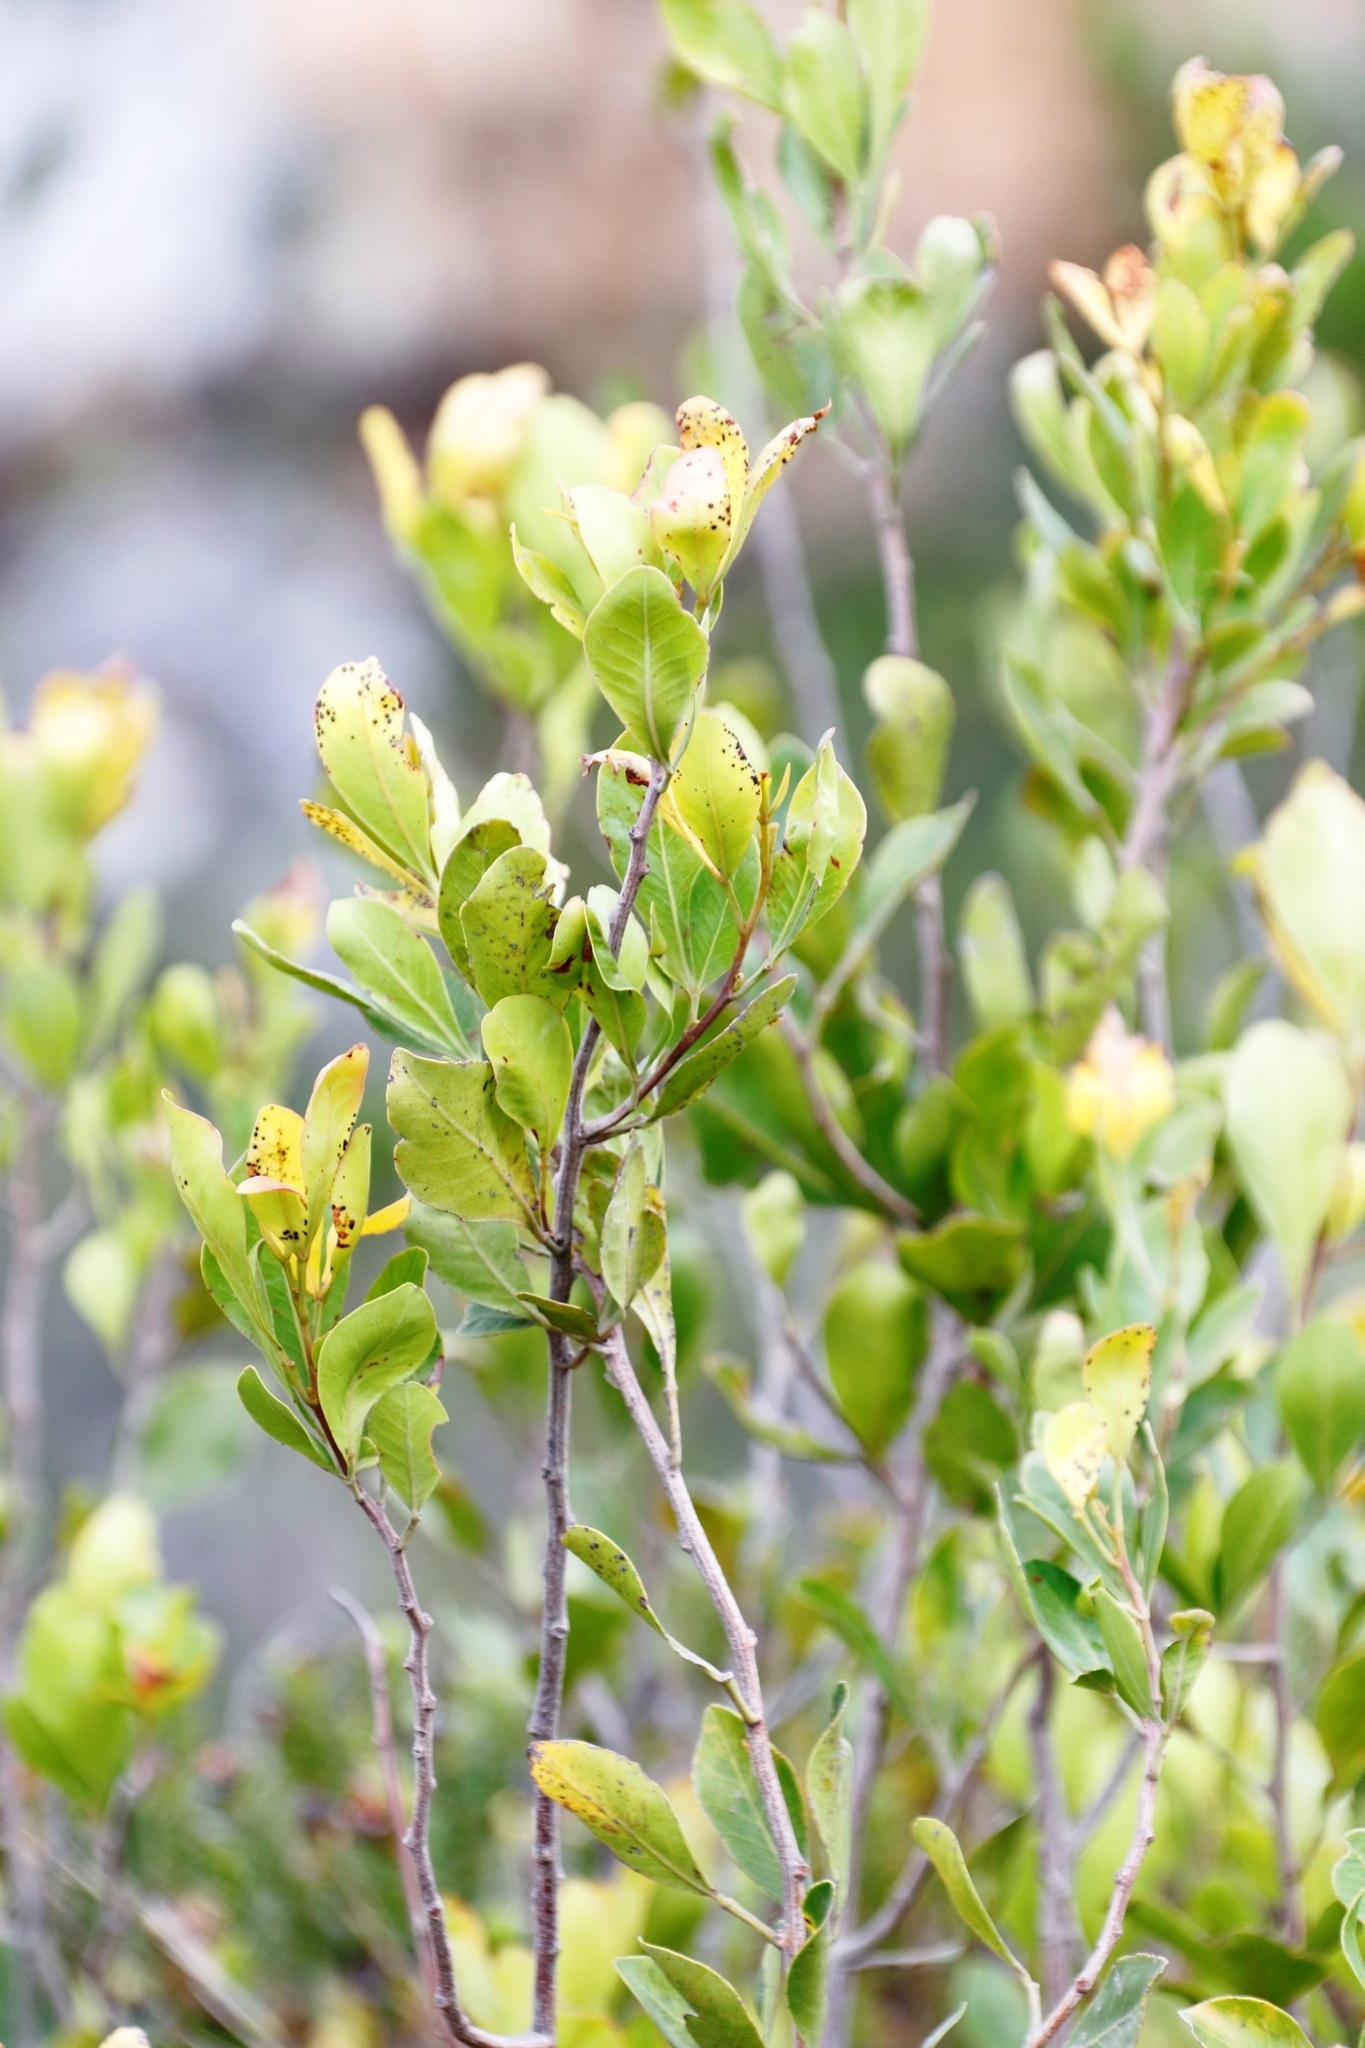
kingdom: Plantae
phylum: Tracheophyta
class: Magnoliopsida
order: Sapindales
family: Anacardiaceae
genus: Searsia
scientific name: Searsia lucida
